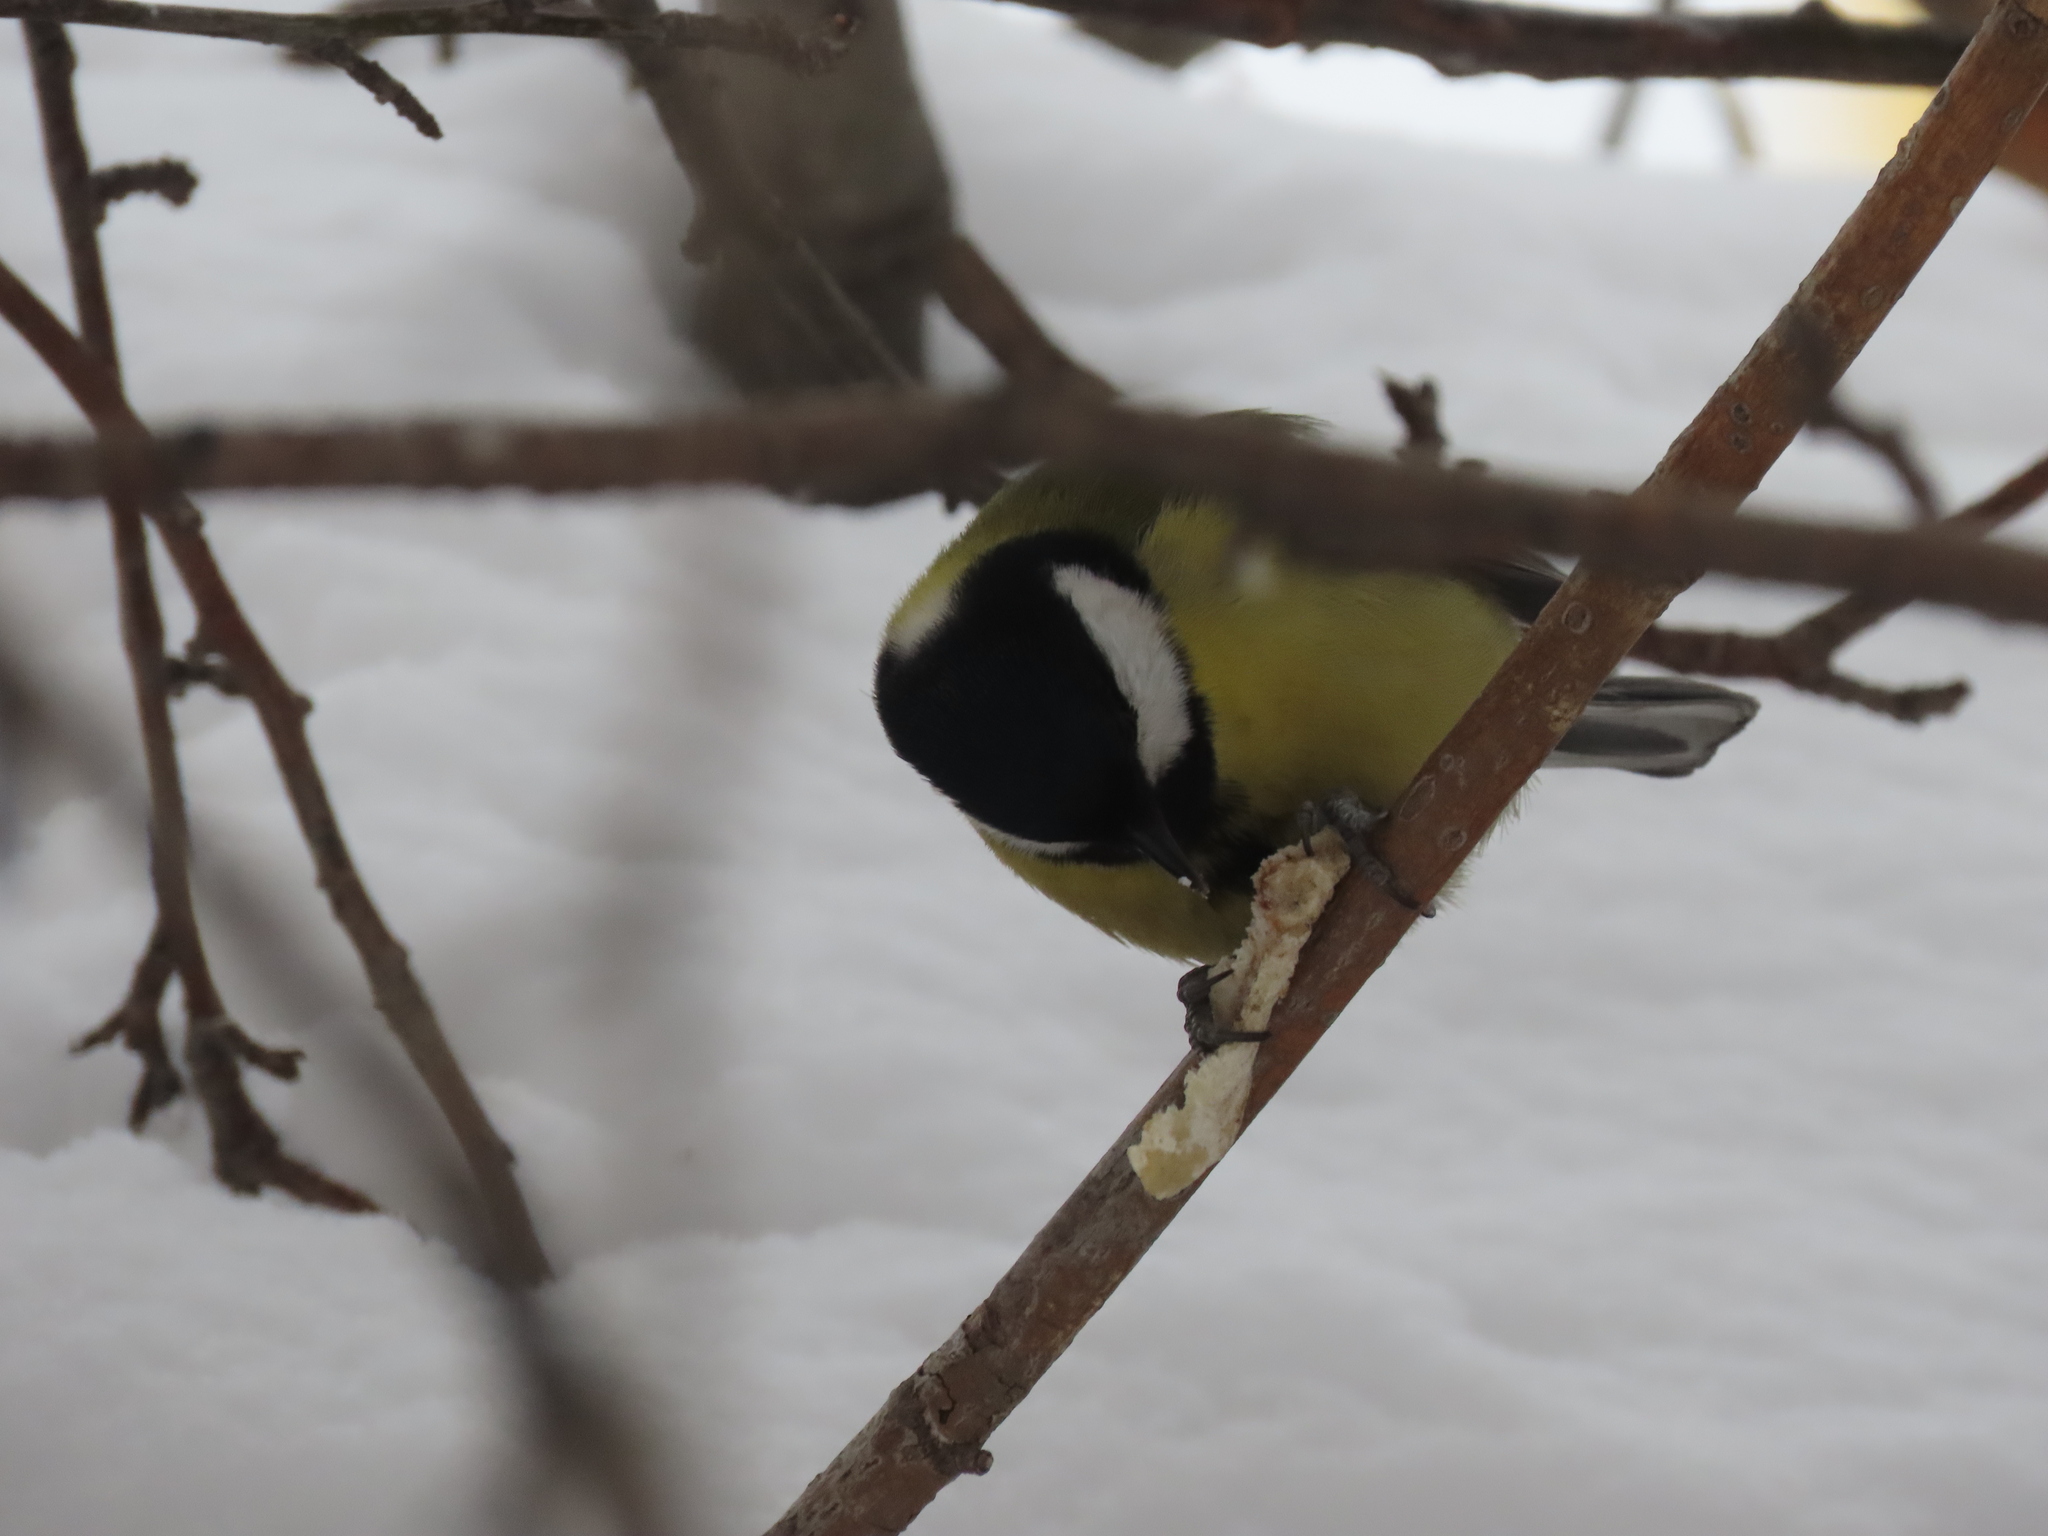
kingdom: Animalia
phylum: Chordata
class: Aves
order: Passeriformes
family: Paridae
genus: Parus
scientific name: Parus major
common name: Great tit
